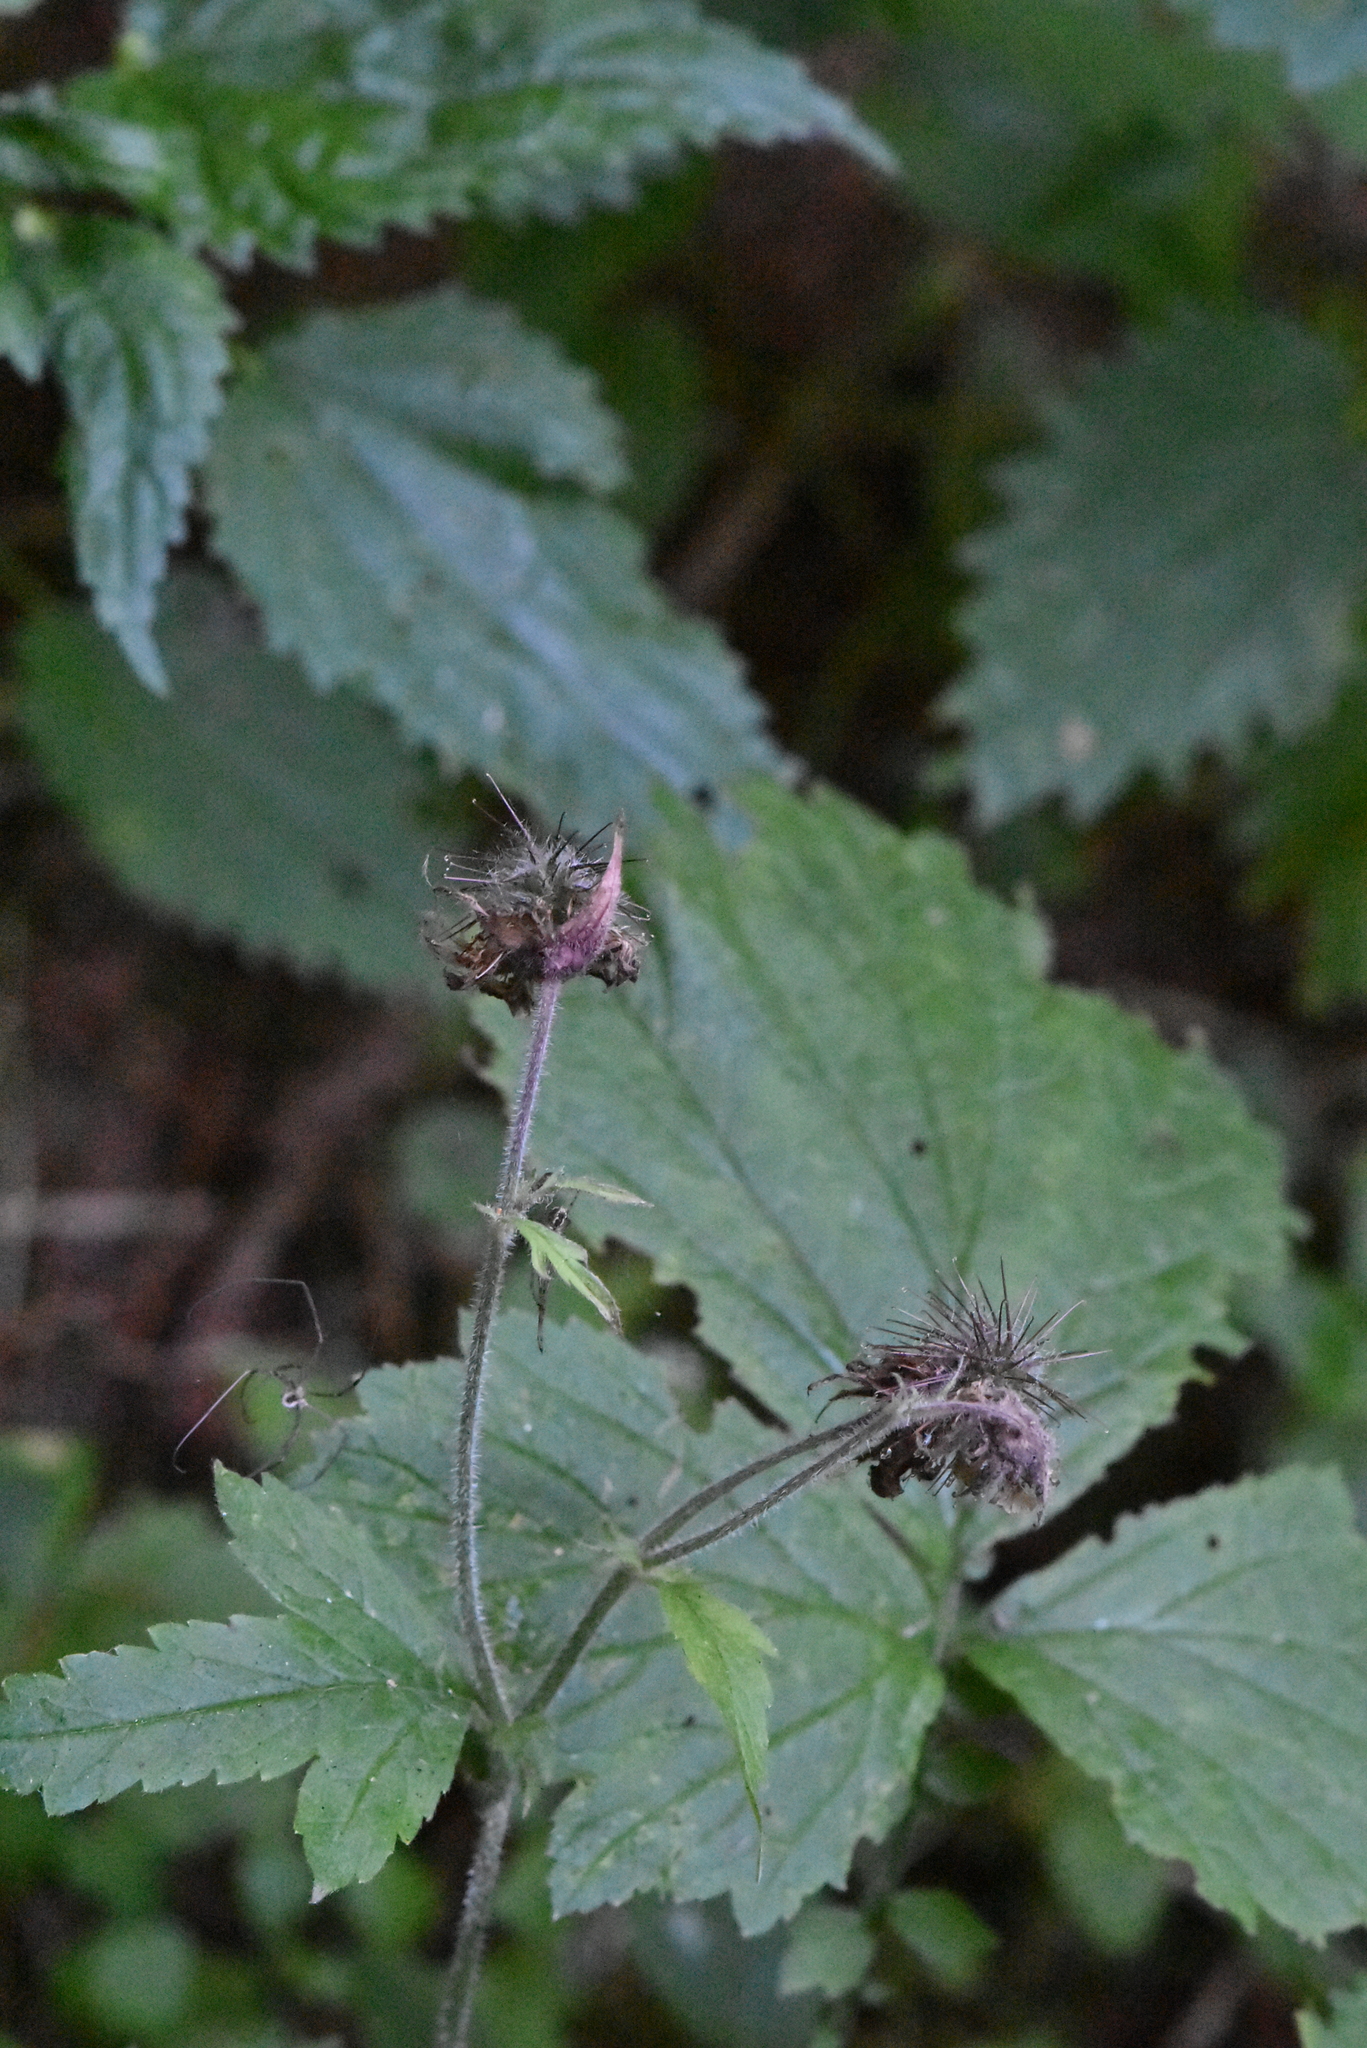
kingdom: Plantae
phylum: Tracheophyta
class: Magnoliopsida
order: Rosales
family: Rosaceae
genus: Geum
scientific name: Geum rivale
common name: Water avens
